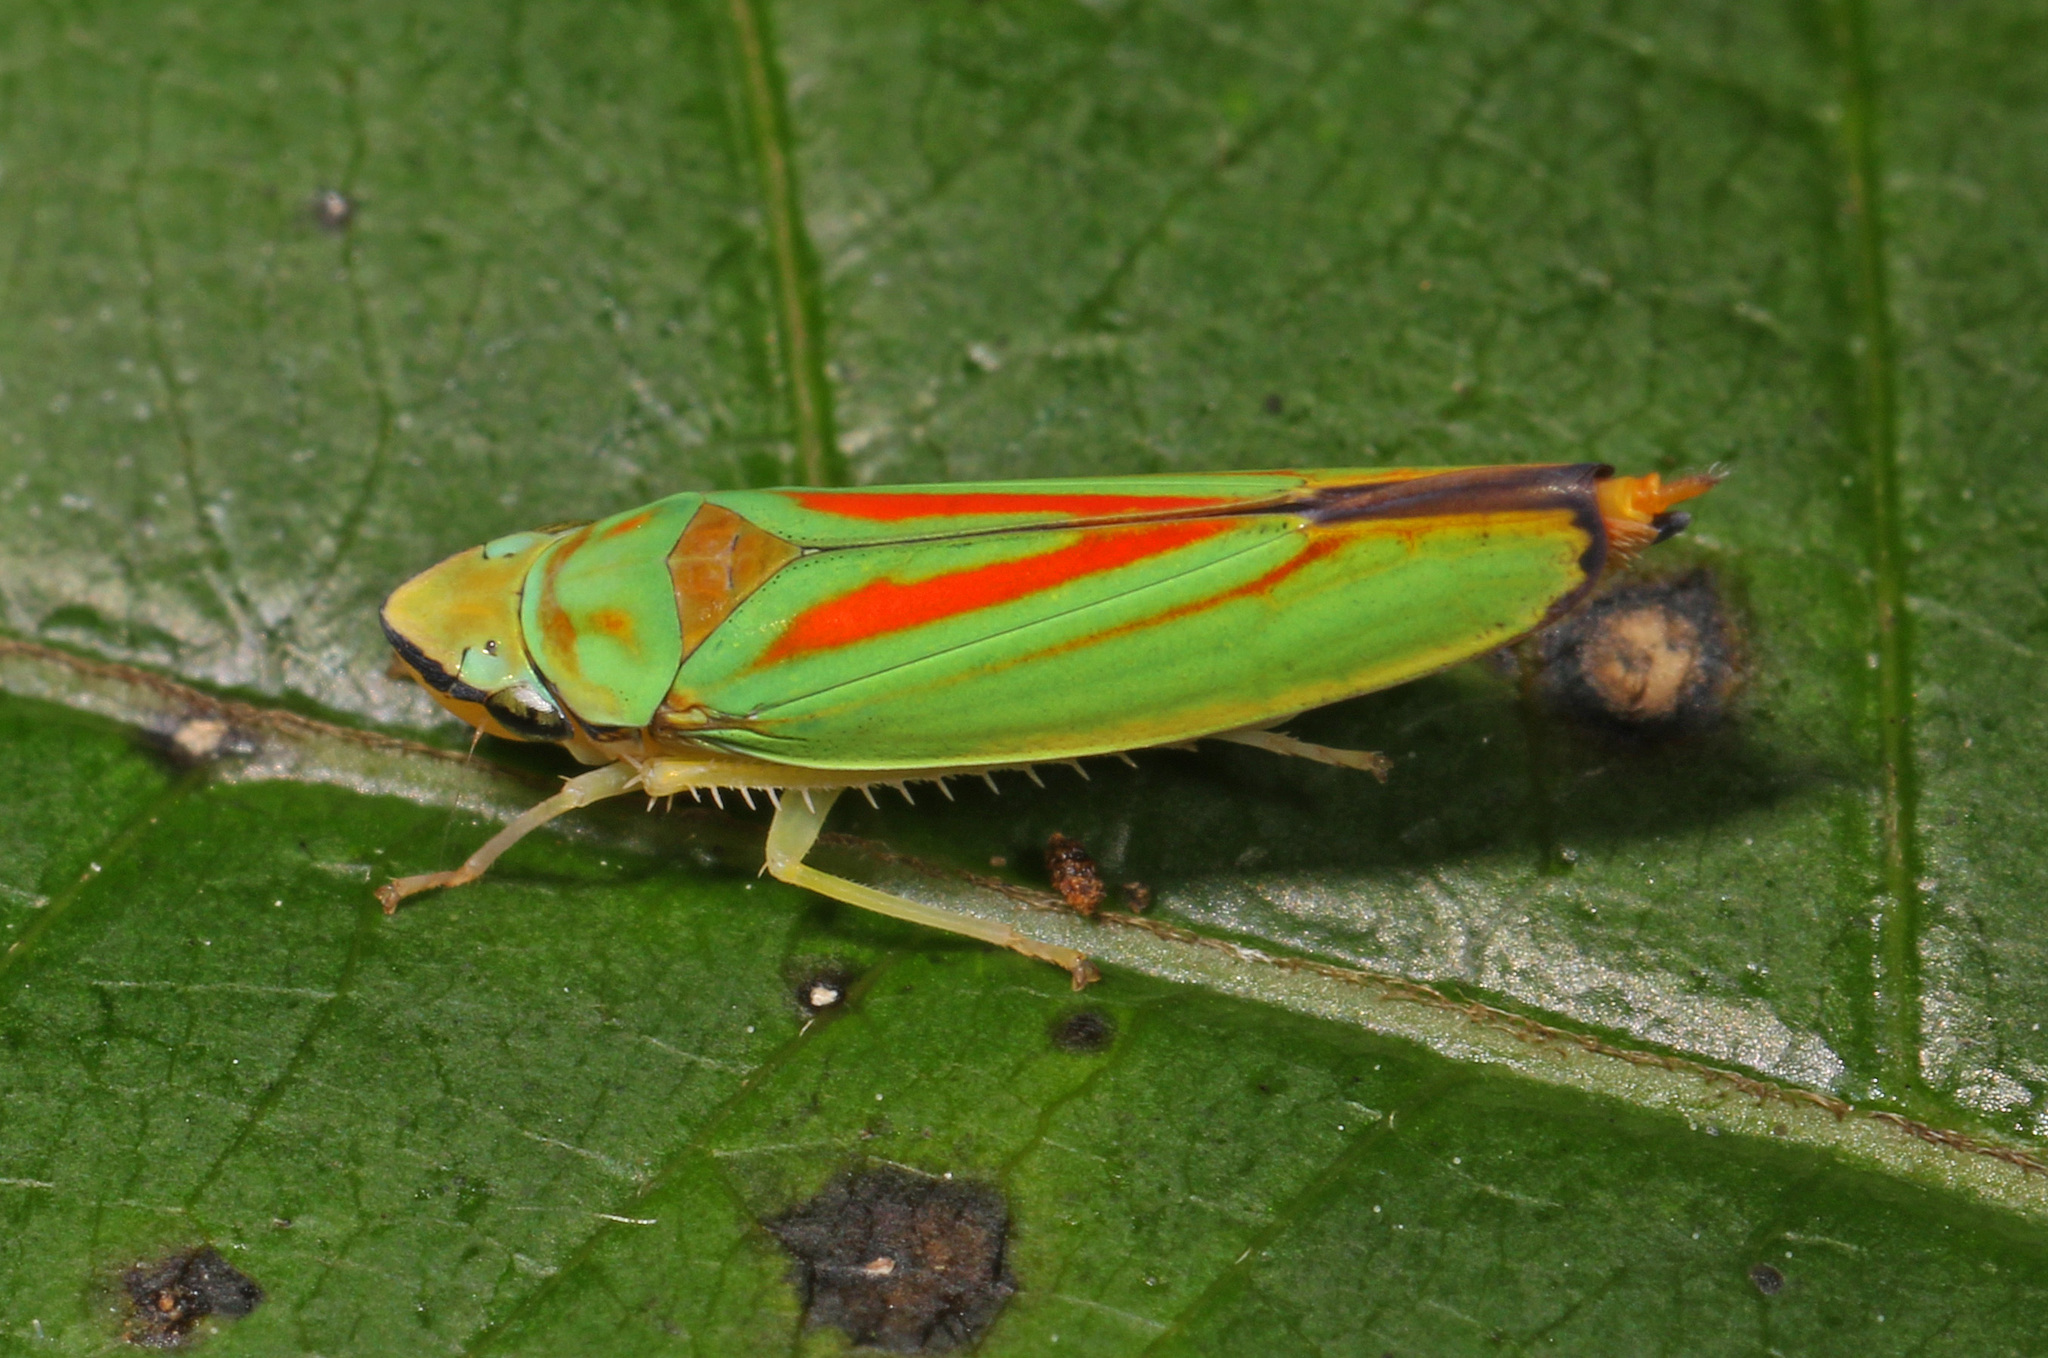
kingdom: Animalia
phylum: Arthropoda
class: Insecta
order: Hemiptera
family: Cicadellidae
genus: Graphocephala
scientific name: Graphocephala fennahi
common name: Rhododendron leafhopper
